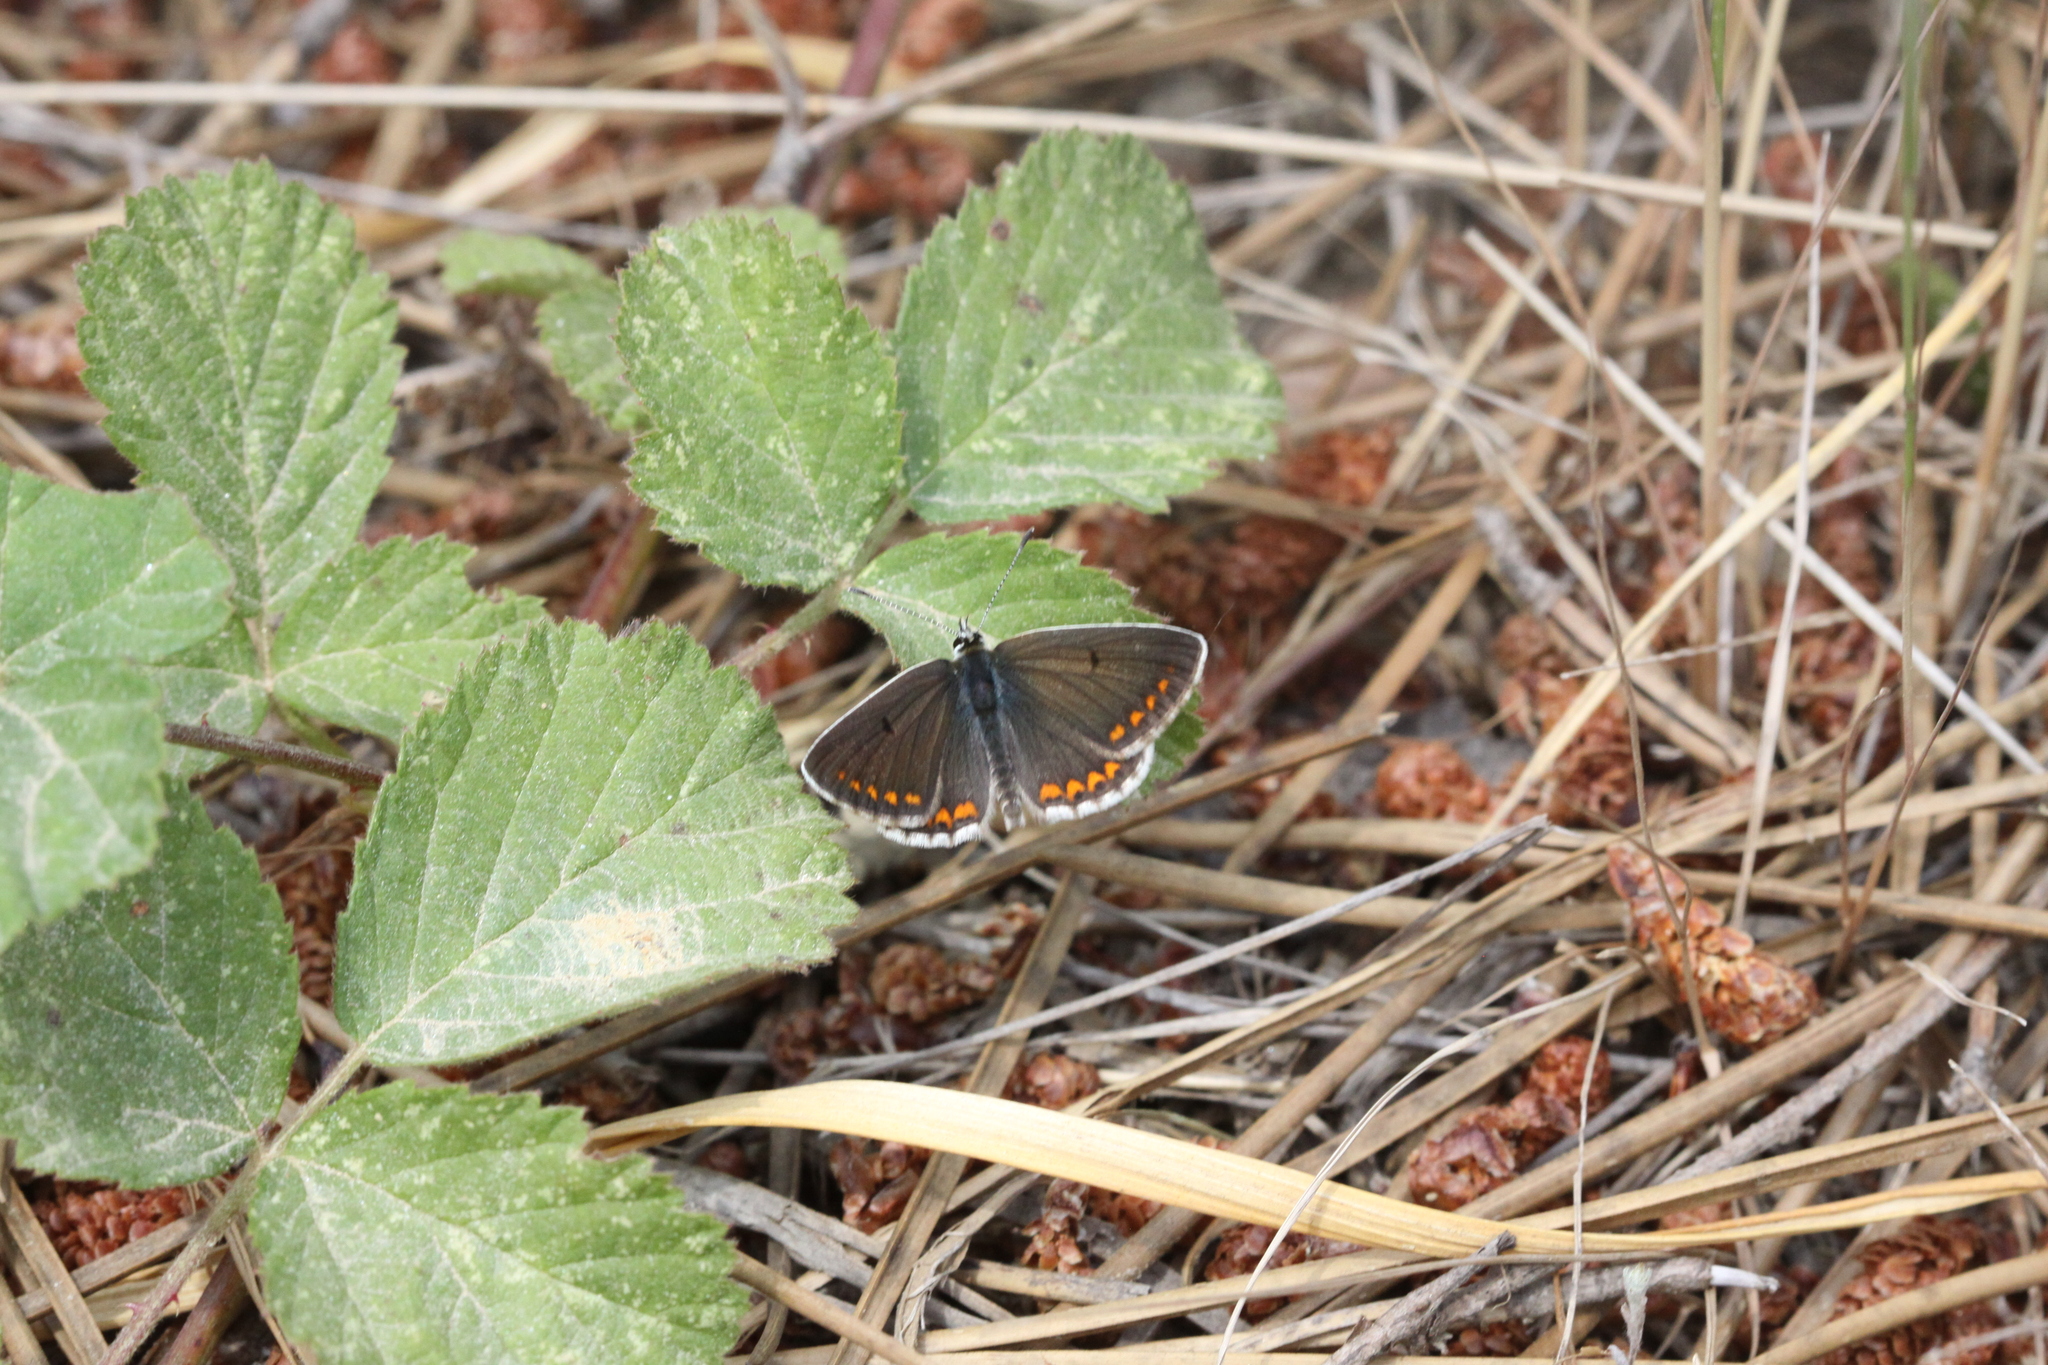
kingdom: Animalia
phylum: Arthropoda
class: Insecta
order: Lepidoptera
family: Lycaenidae
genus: Aricia
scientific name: Aricia agestis
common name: Brown argus
